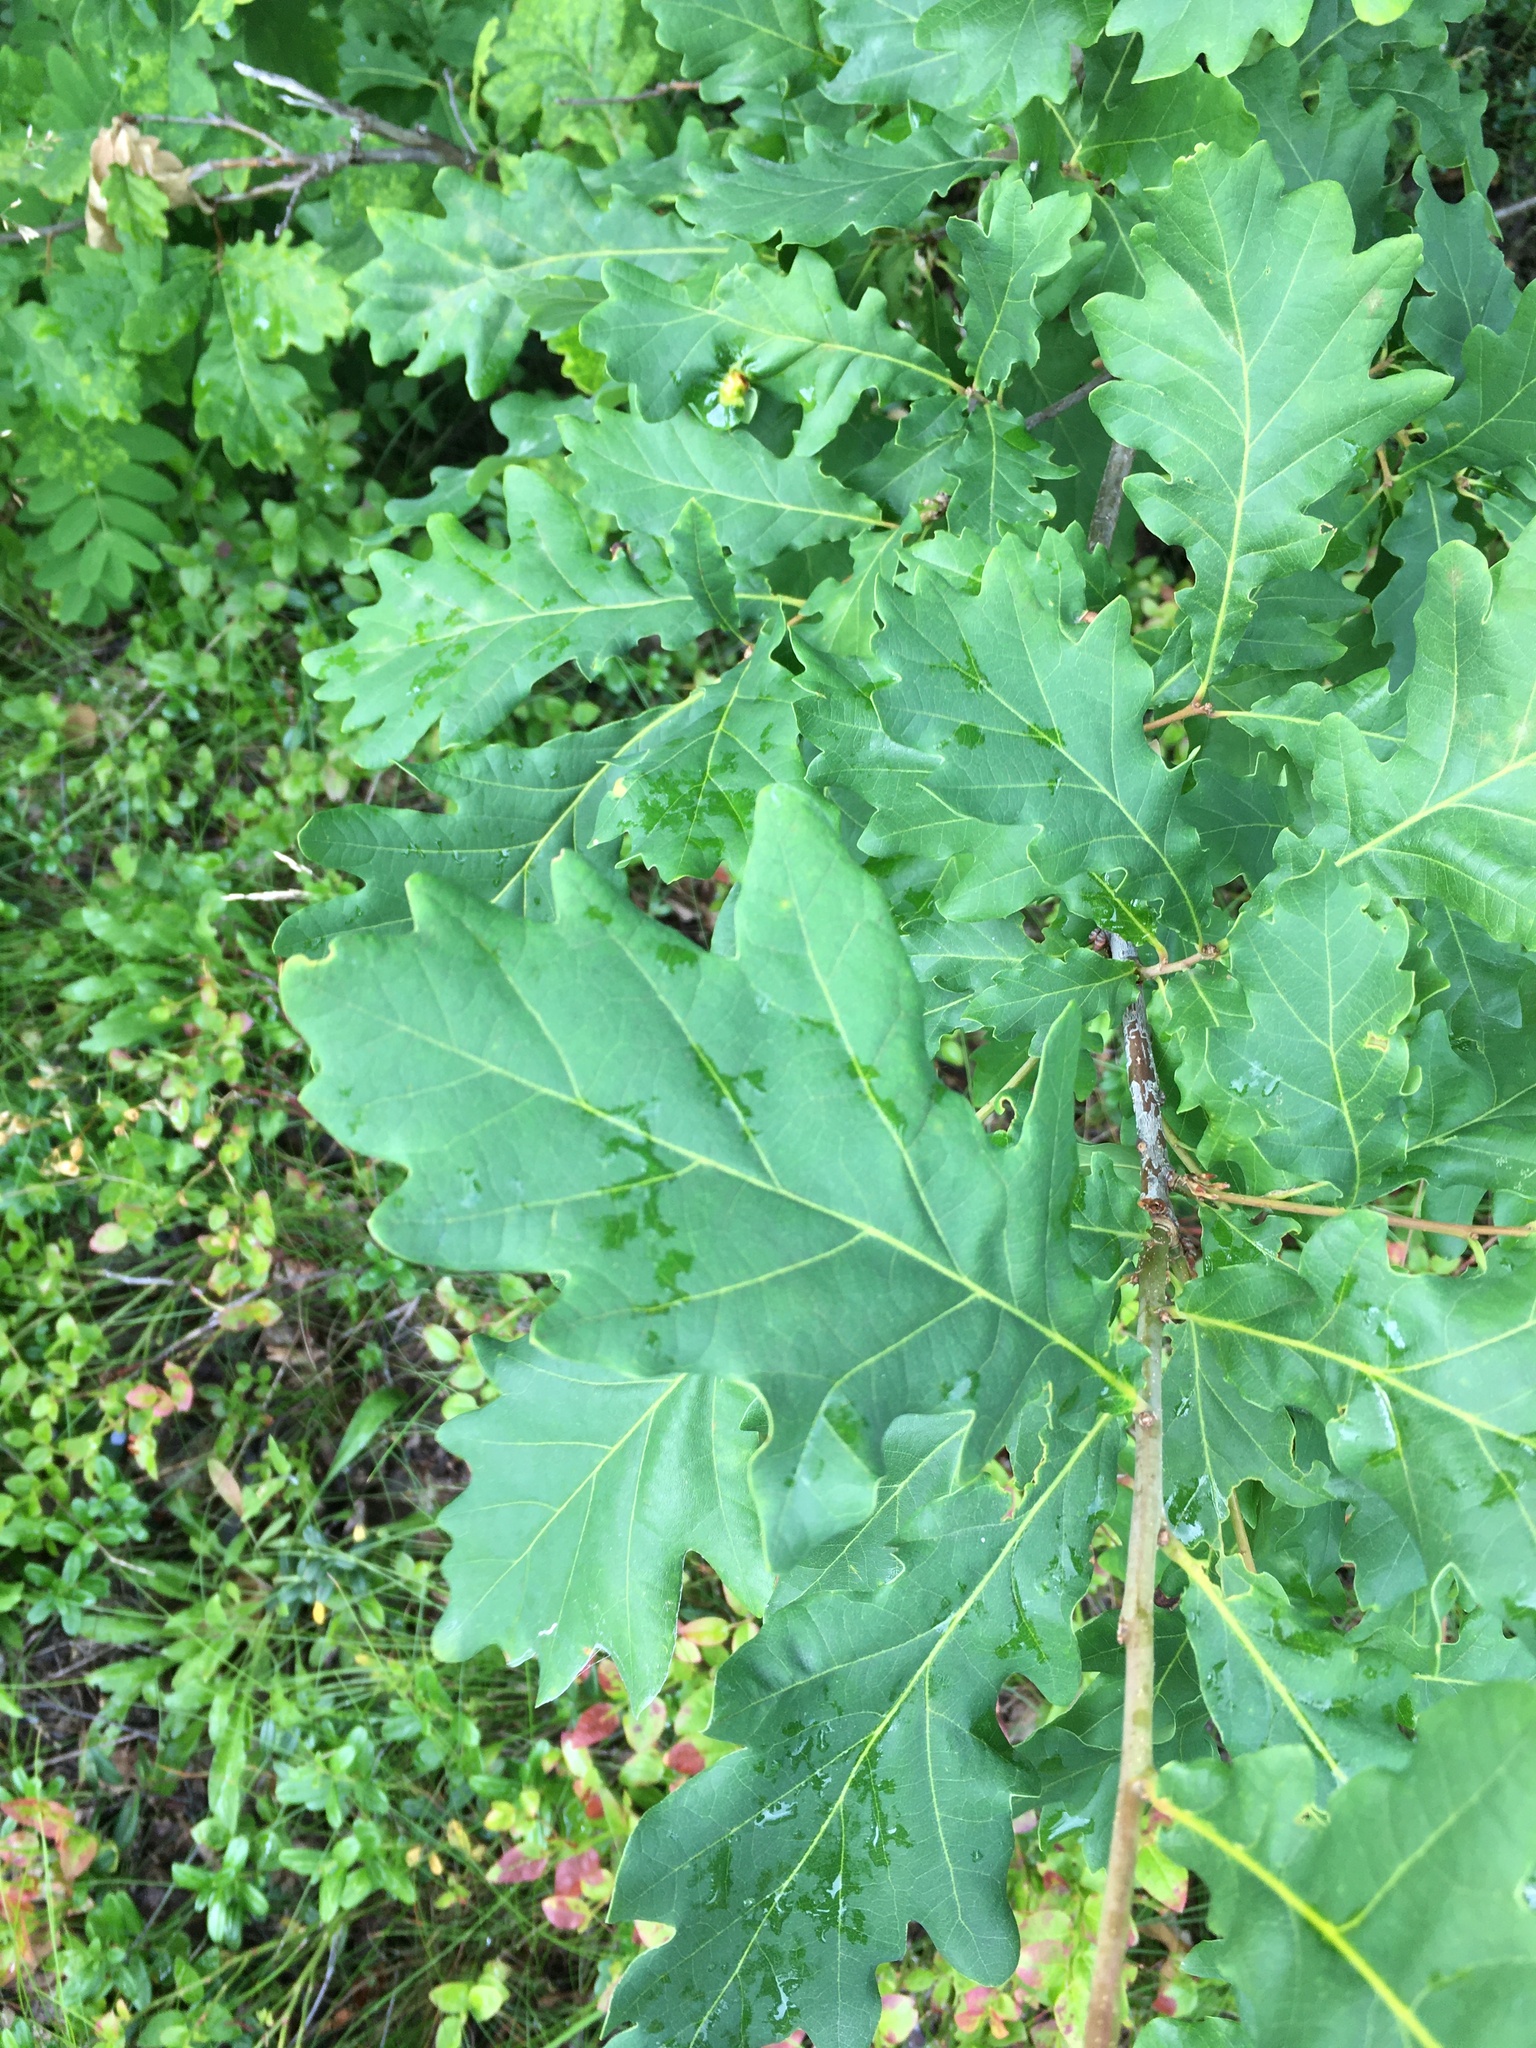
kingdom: Plantae
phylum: Tracheophyta
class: Magnoliopsida
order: Fagales
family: Fagaceae
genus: Quercus
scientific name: Quercus robur
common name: Pedunculate oak
